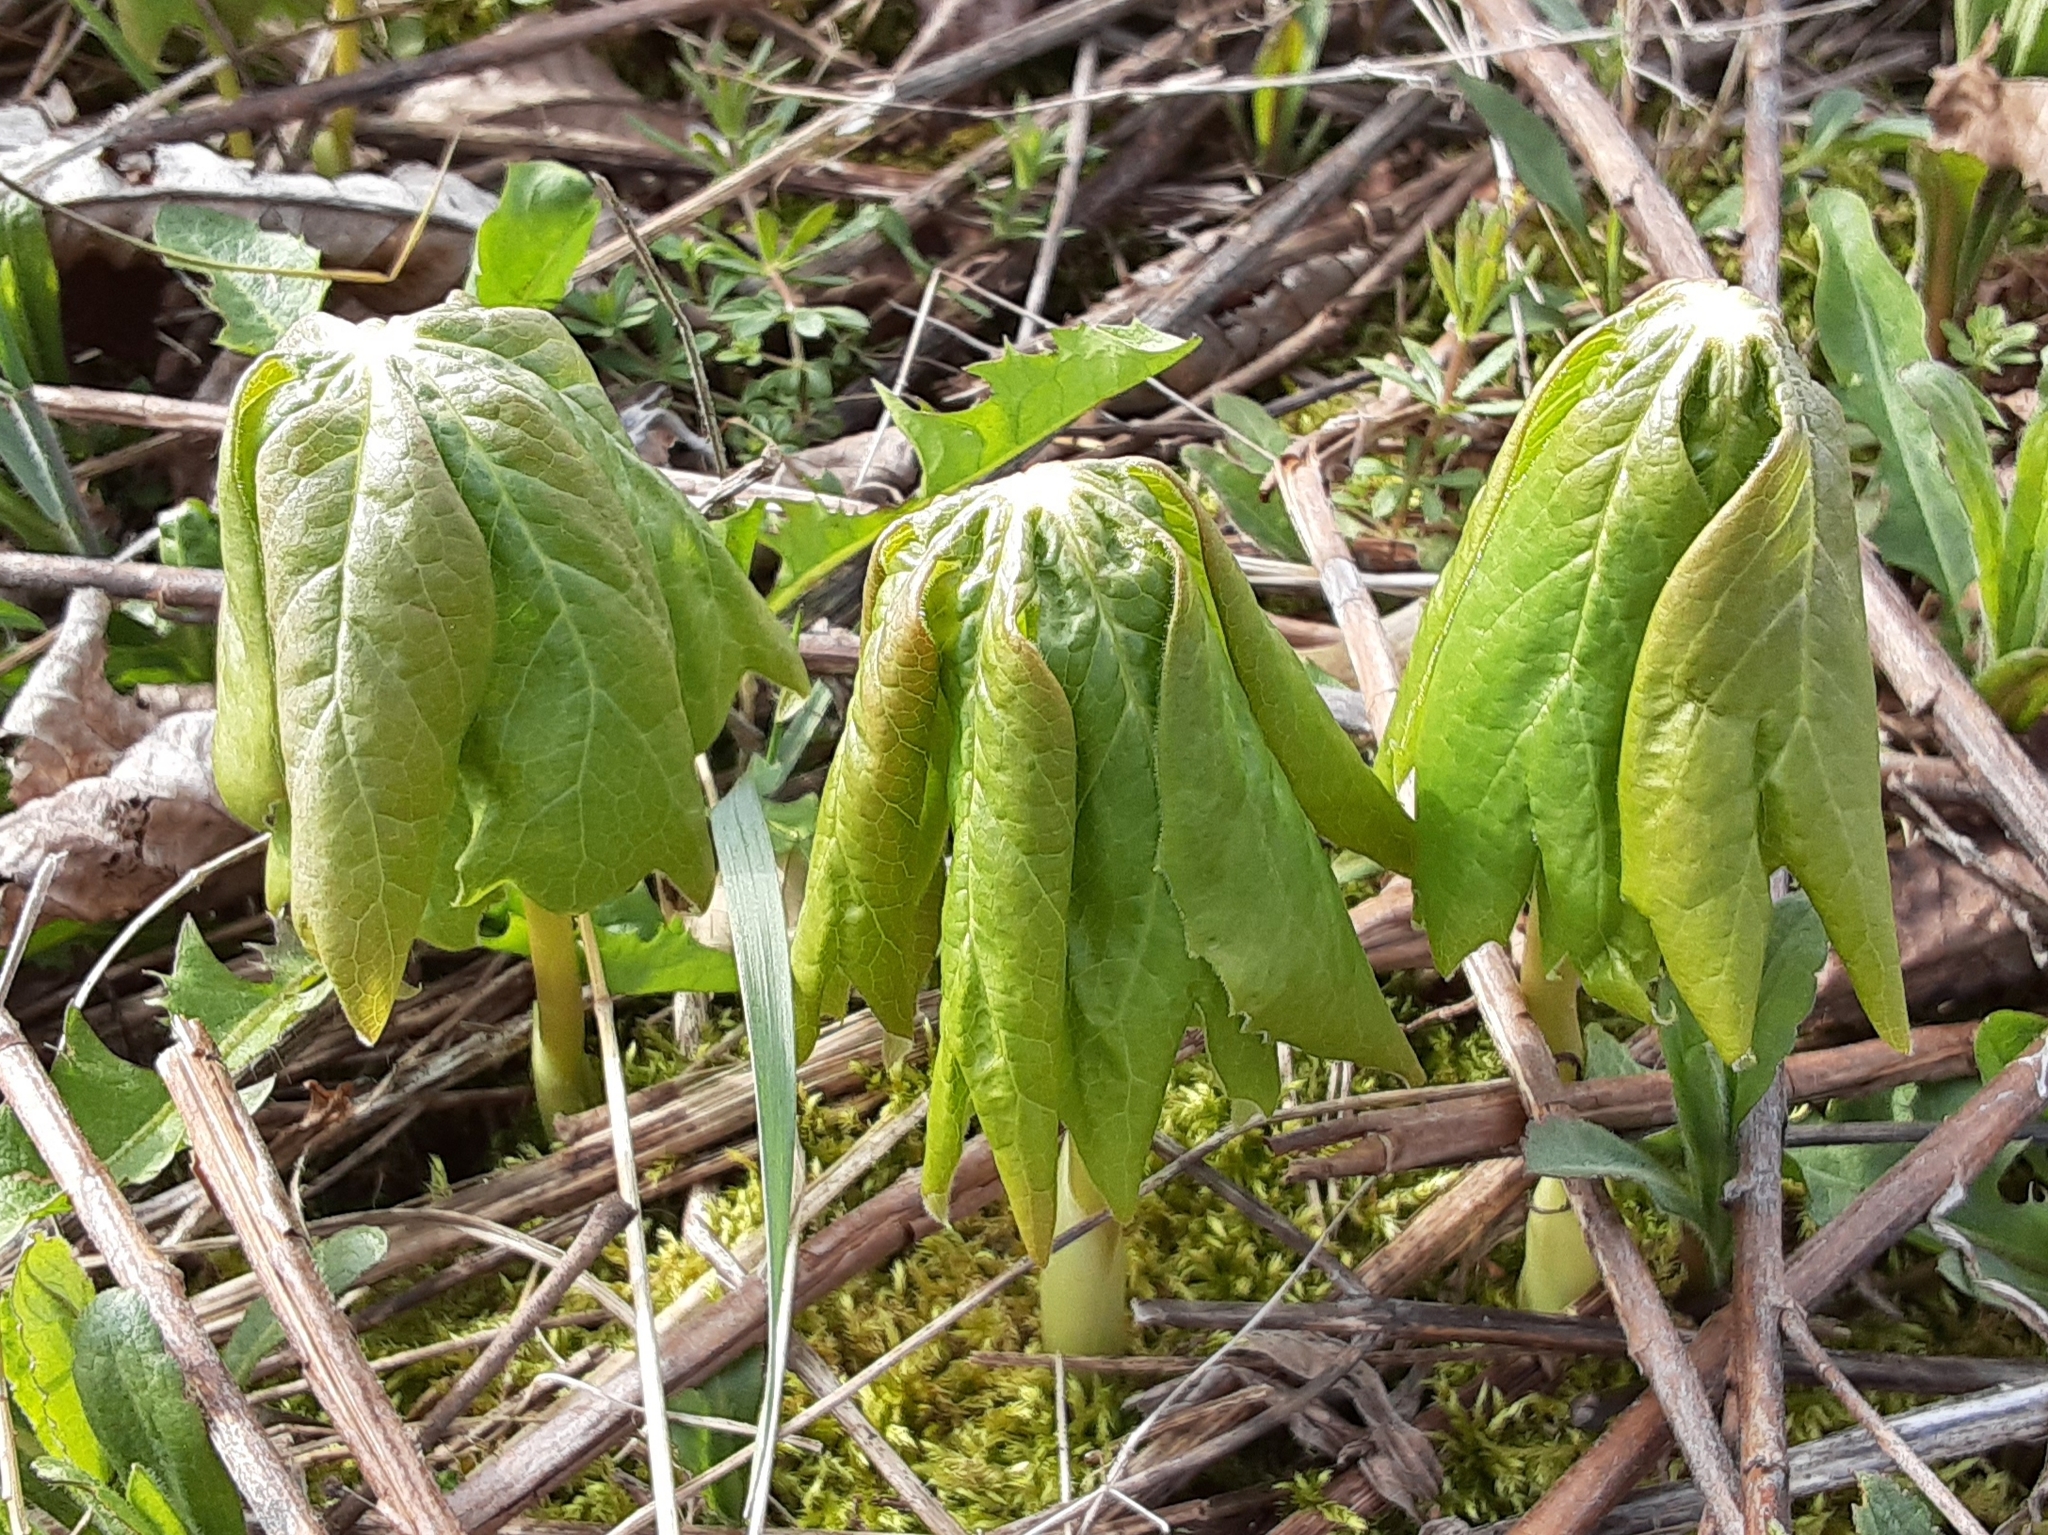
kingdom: Plantae
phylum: Tracheophyta
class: Magnoliopsida
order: Ranunculales
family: Berberidaceae
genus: Podophyllum
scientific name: Podophyllum peltatum
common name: Wild mandrake
